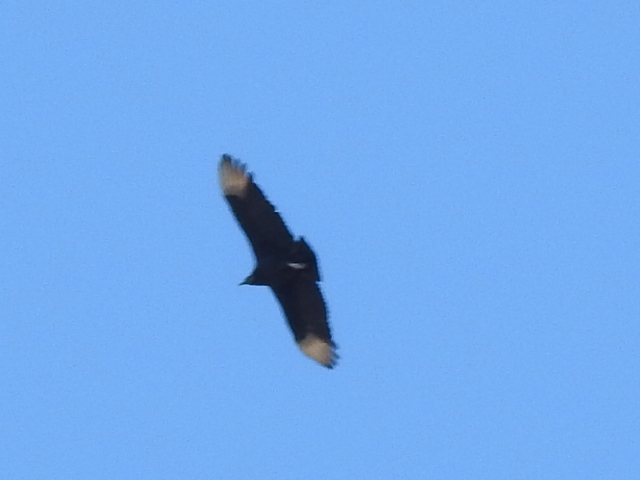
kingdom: Animalia
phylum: Chordata
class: Aves
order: Accipitriformes
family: Cathartidae
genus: Coragyps
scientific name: Coragyps atratus
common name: Black vulture
